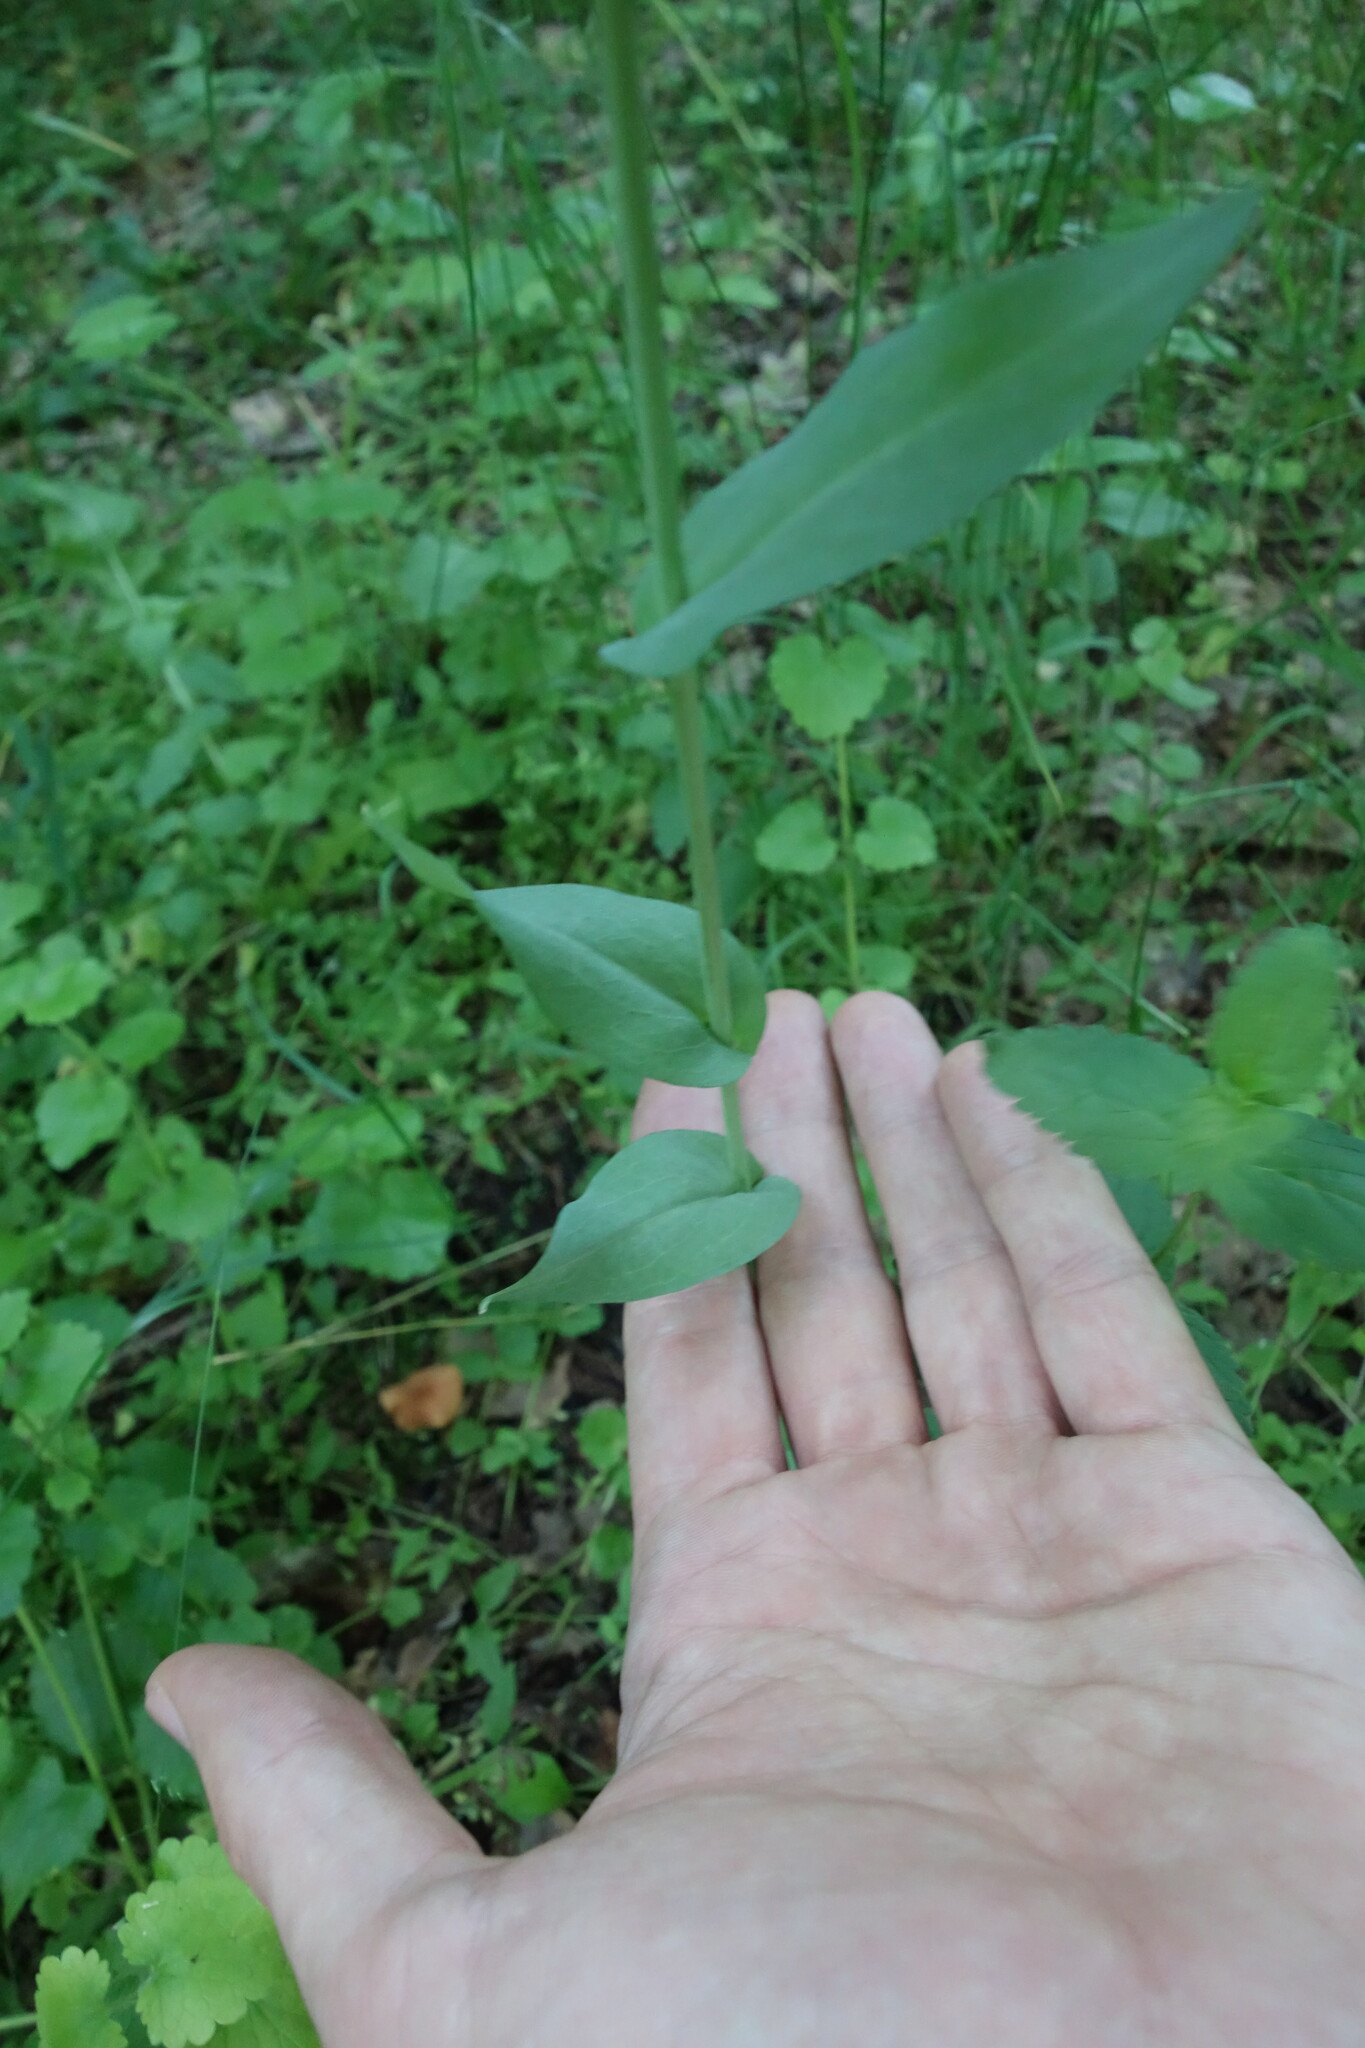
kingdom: Plantae
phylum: Tracheophyta
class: Magnoliopsida
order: Brassicales
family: Brassicaceae
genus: Turritis
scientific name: Turritis glabra
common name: Tower rockcress
